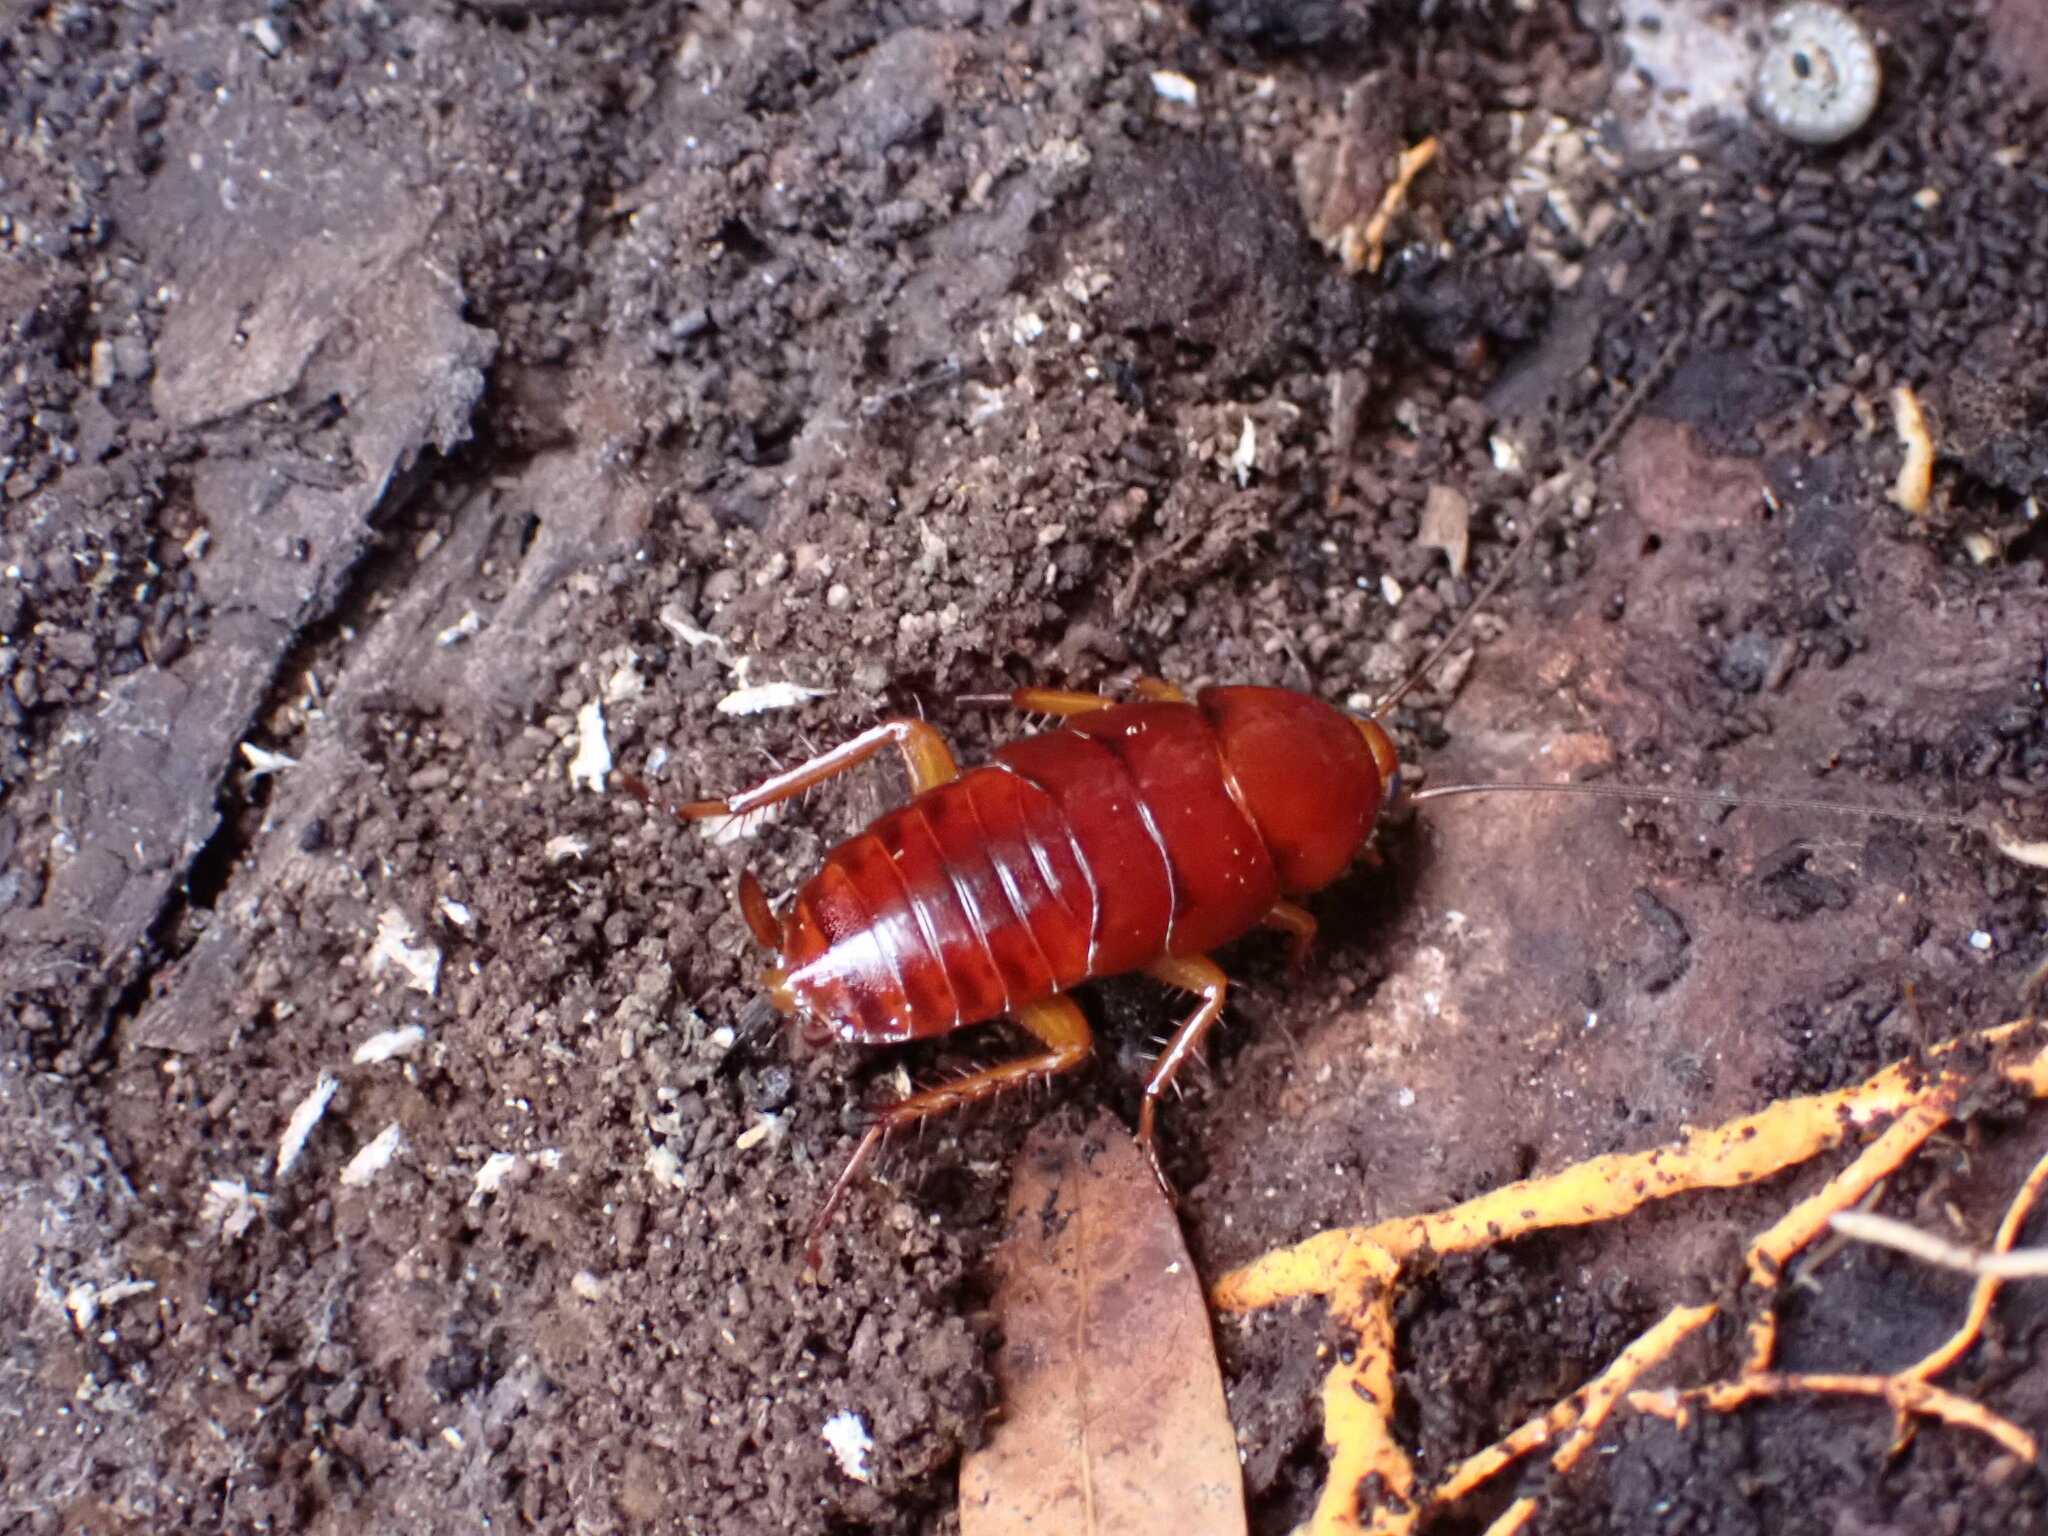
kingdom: Animalia
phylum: Arthropoda
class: Insecta
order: Blattodea
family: Blattidae
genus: Periplaneta
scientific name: Periplaneta fuliginosa
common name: Smokeybrown cockroad
